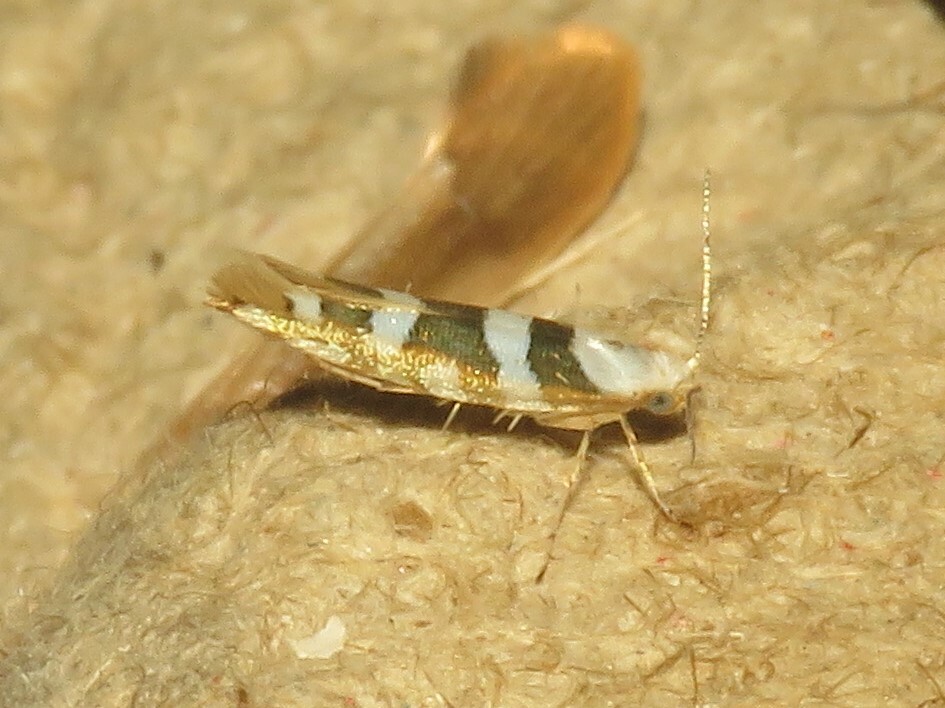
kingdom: Animalia
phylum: Arthropoda
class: Insecta
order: Lepidoptera
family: Argyresthiidae
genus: Argyresthia
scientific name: Argyresthia calliphanes
